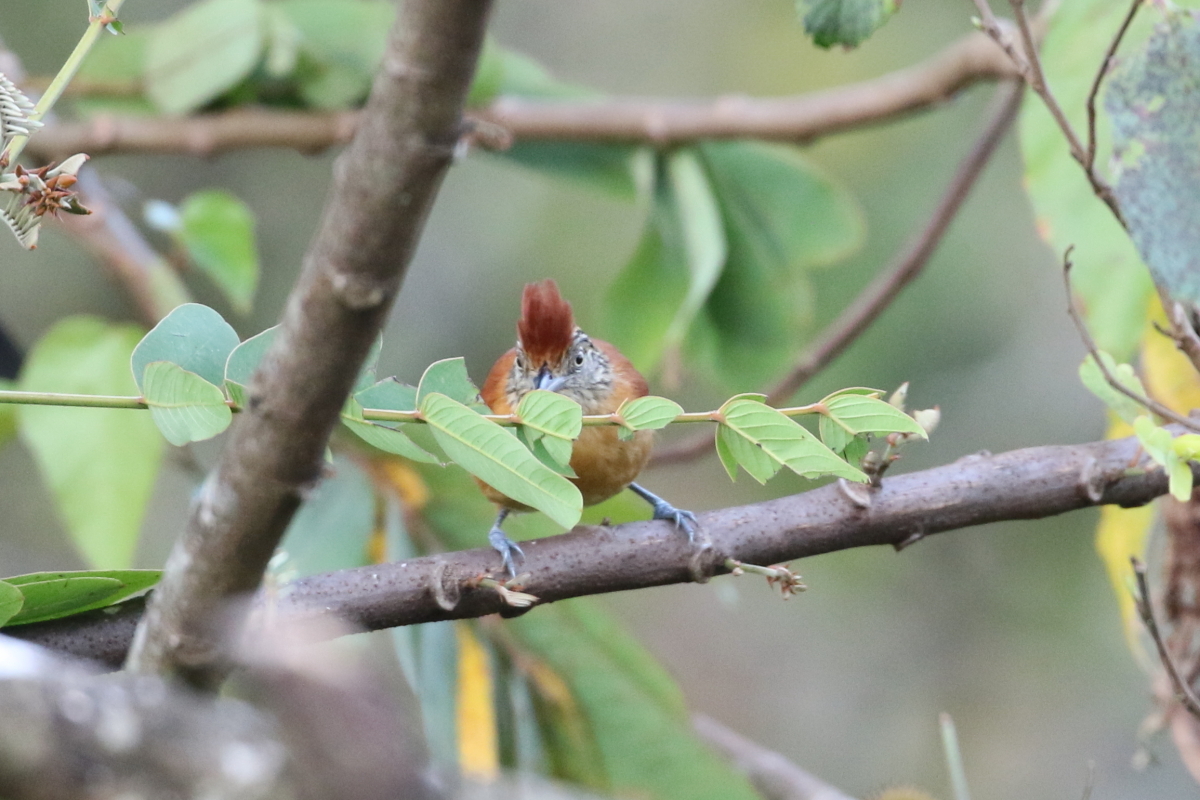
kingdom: Animalia
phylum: Chordata
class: Aves
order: Passeriformes
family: Thamnophilidae
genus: Thamnophilus
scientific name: Thamnophilus doliatus
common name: Barred antshrike
